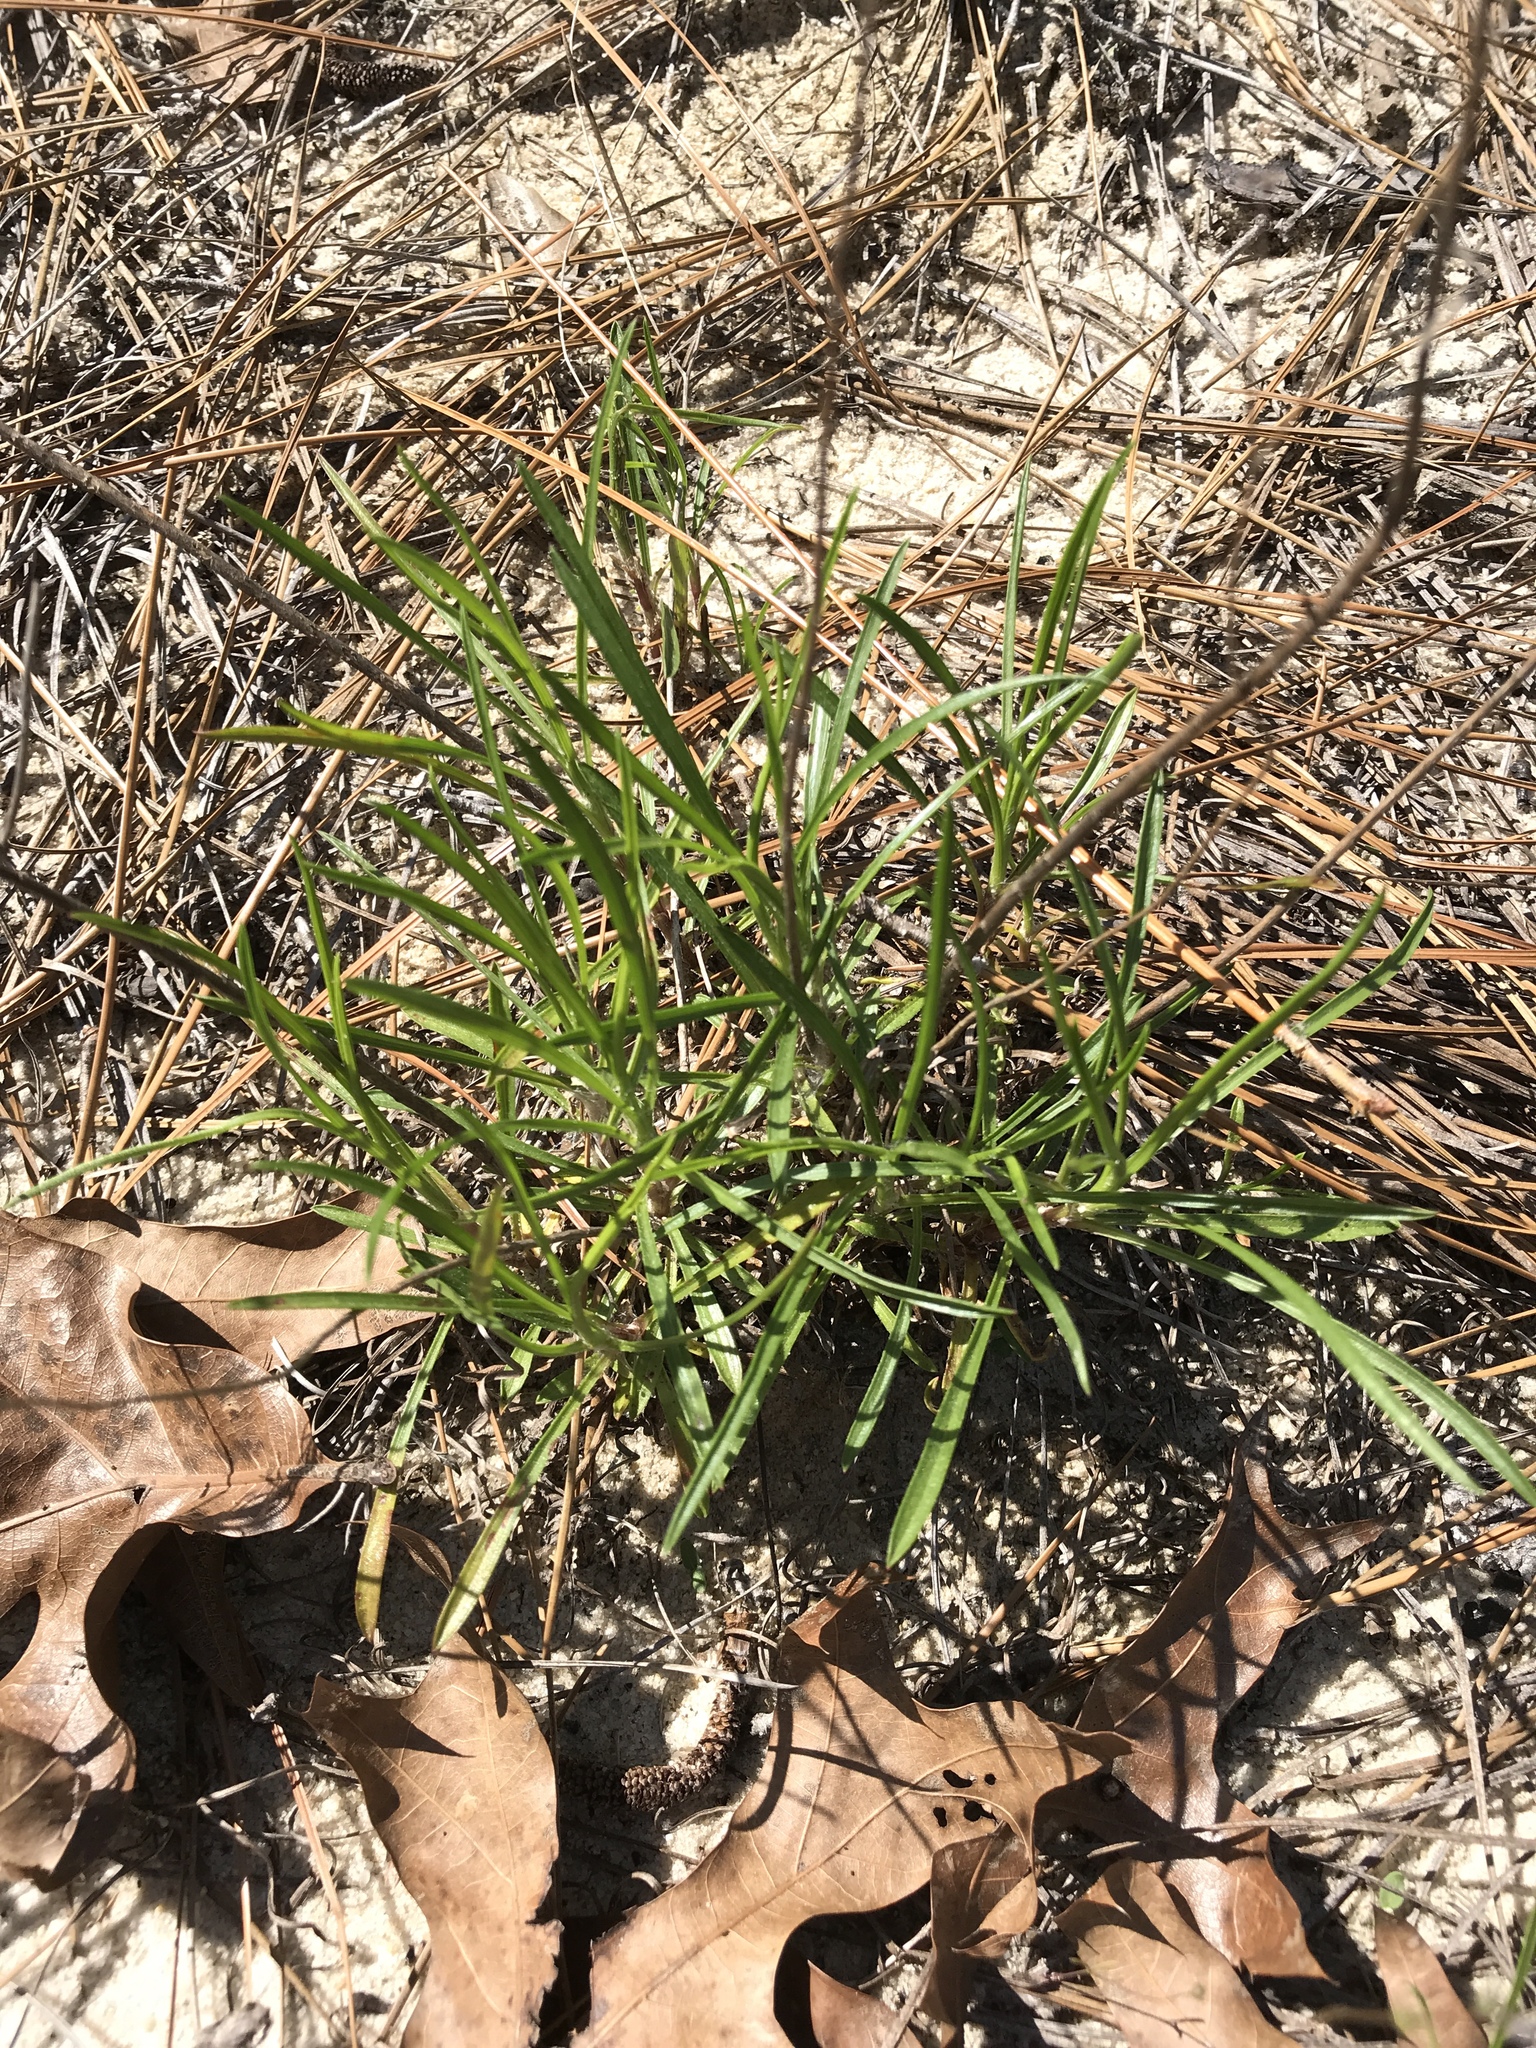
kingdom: Plantae
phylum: Tracheophyta
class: Magnoliopsida
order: Asterales
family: Asteraceae
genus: Pityopsis
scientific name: Pityopsis pinifolia
